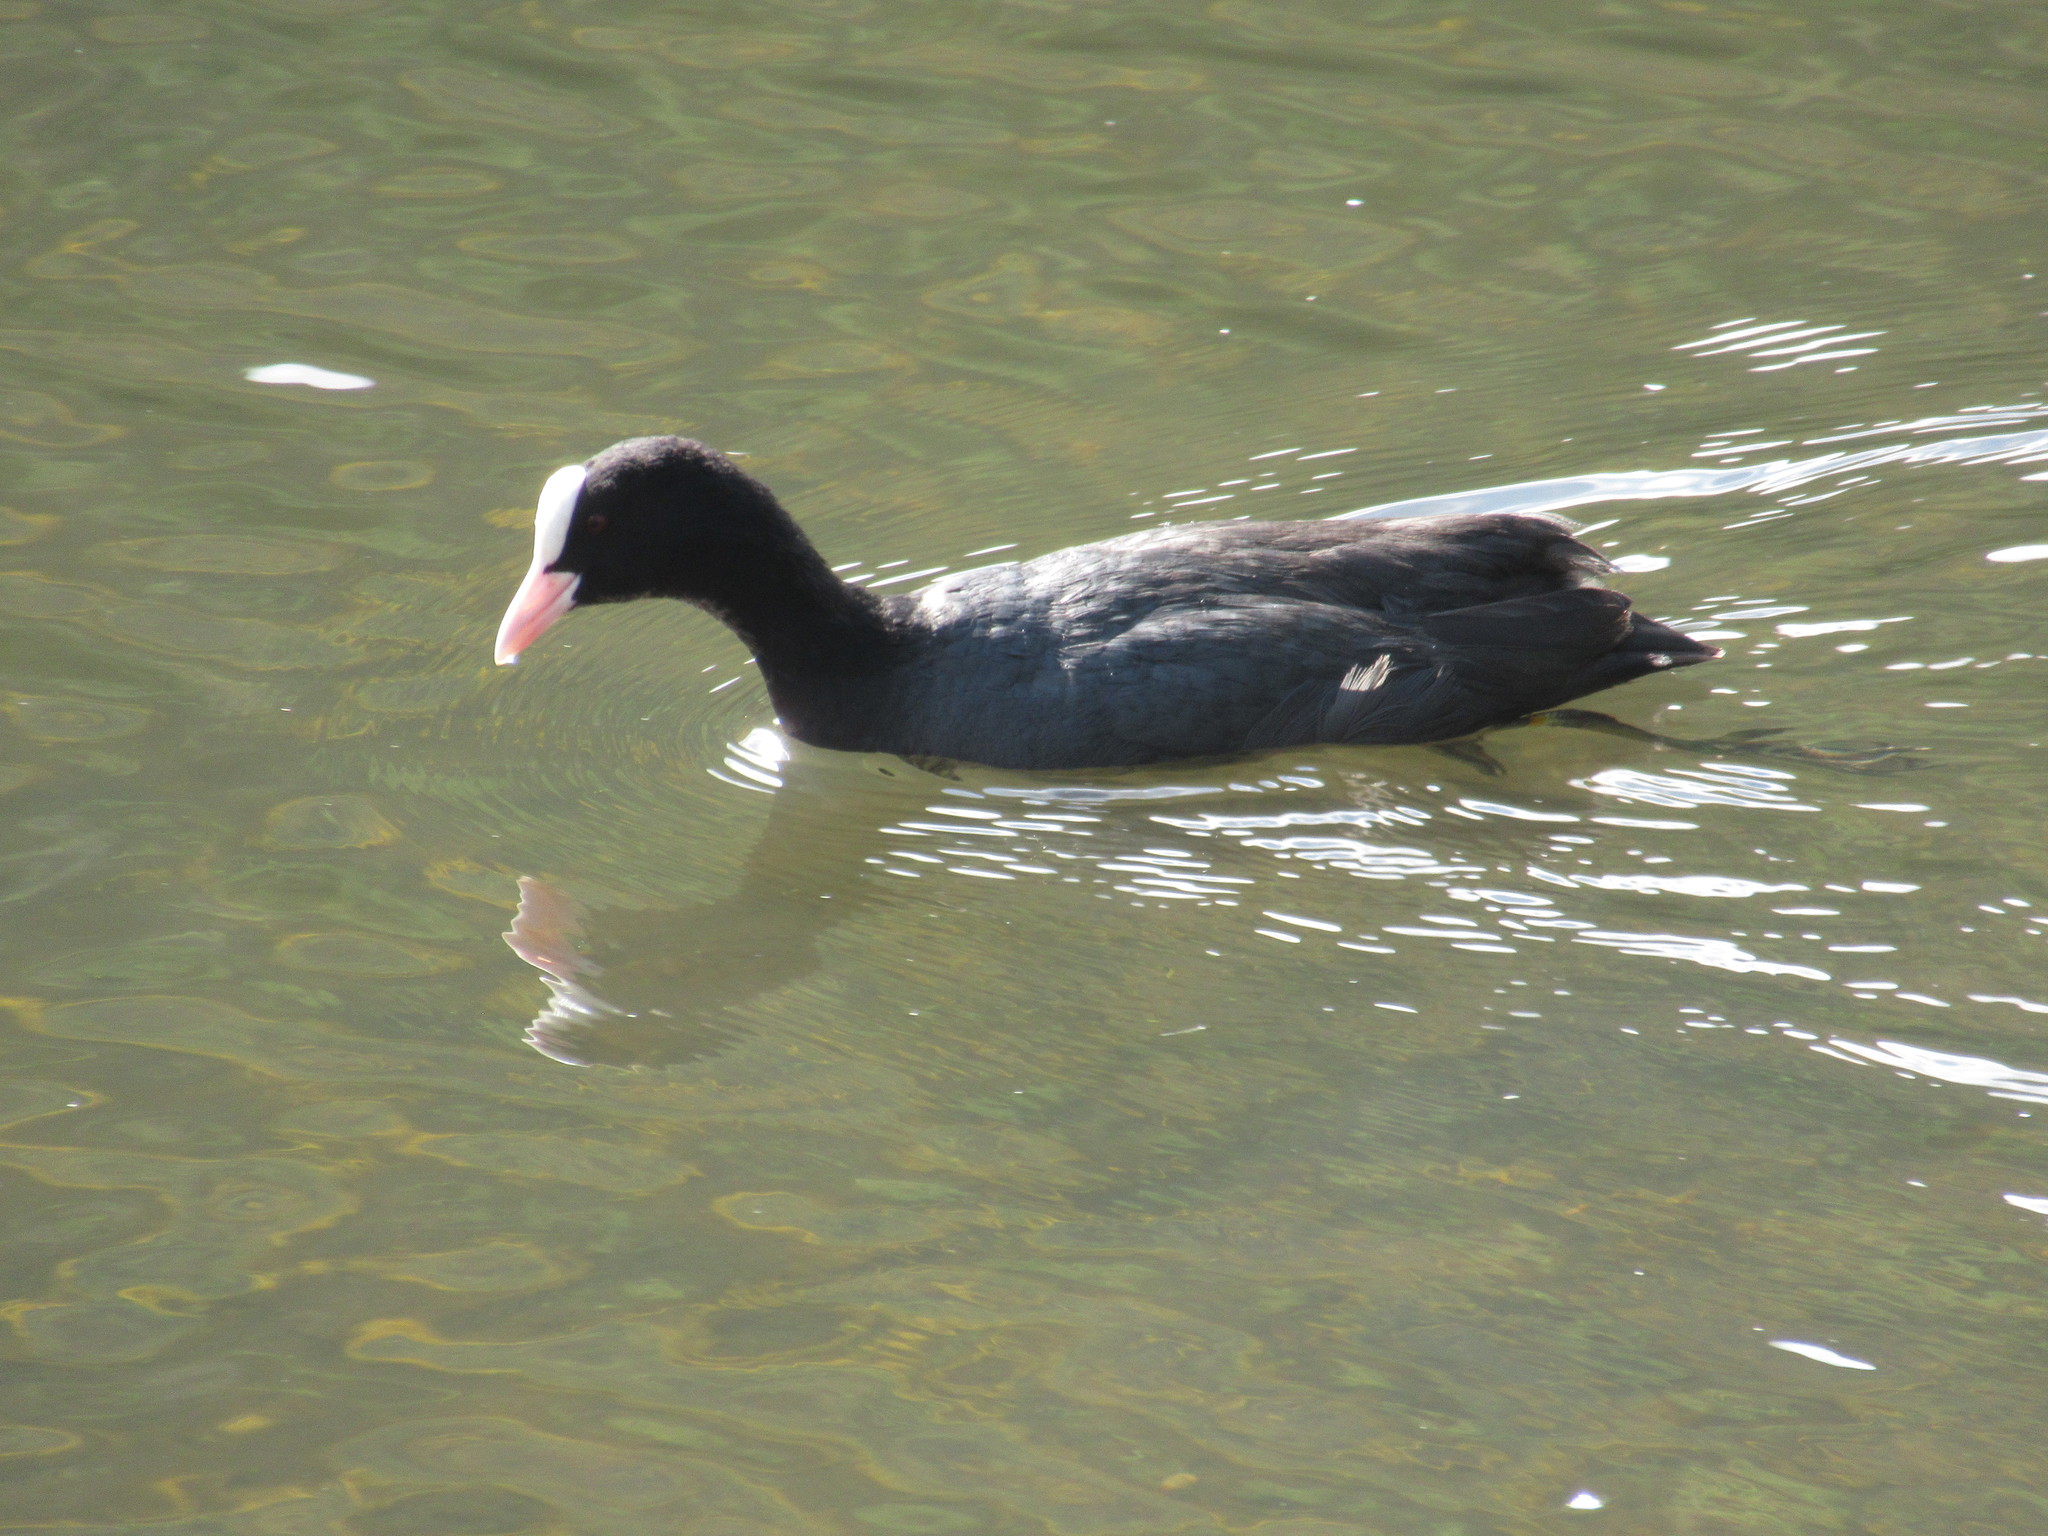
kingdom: Animalia
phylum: Chordata
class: Aves
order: Gruiformes
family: Rallidae
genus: Fulica
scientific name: Fulica atra
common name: Eurasian coot
